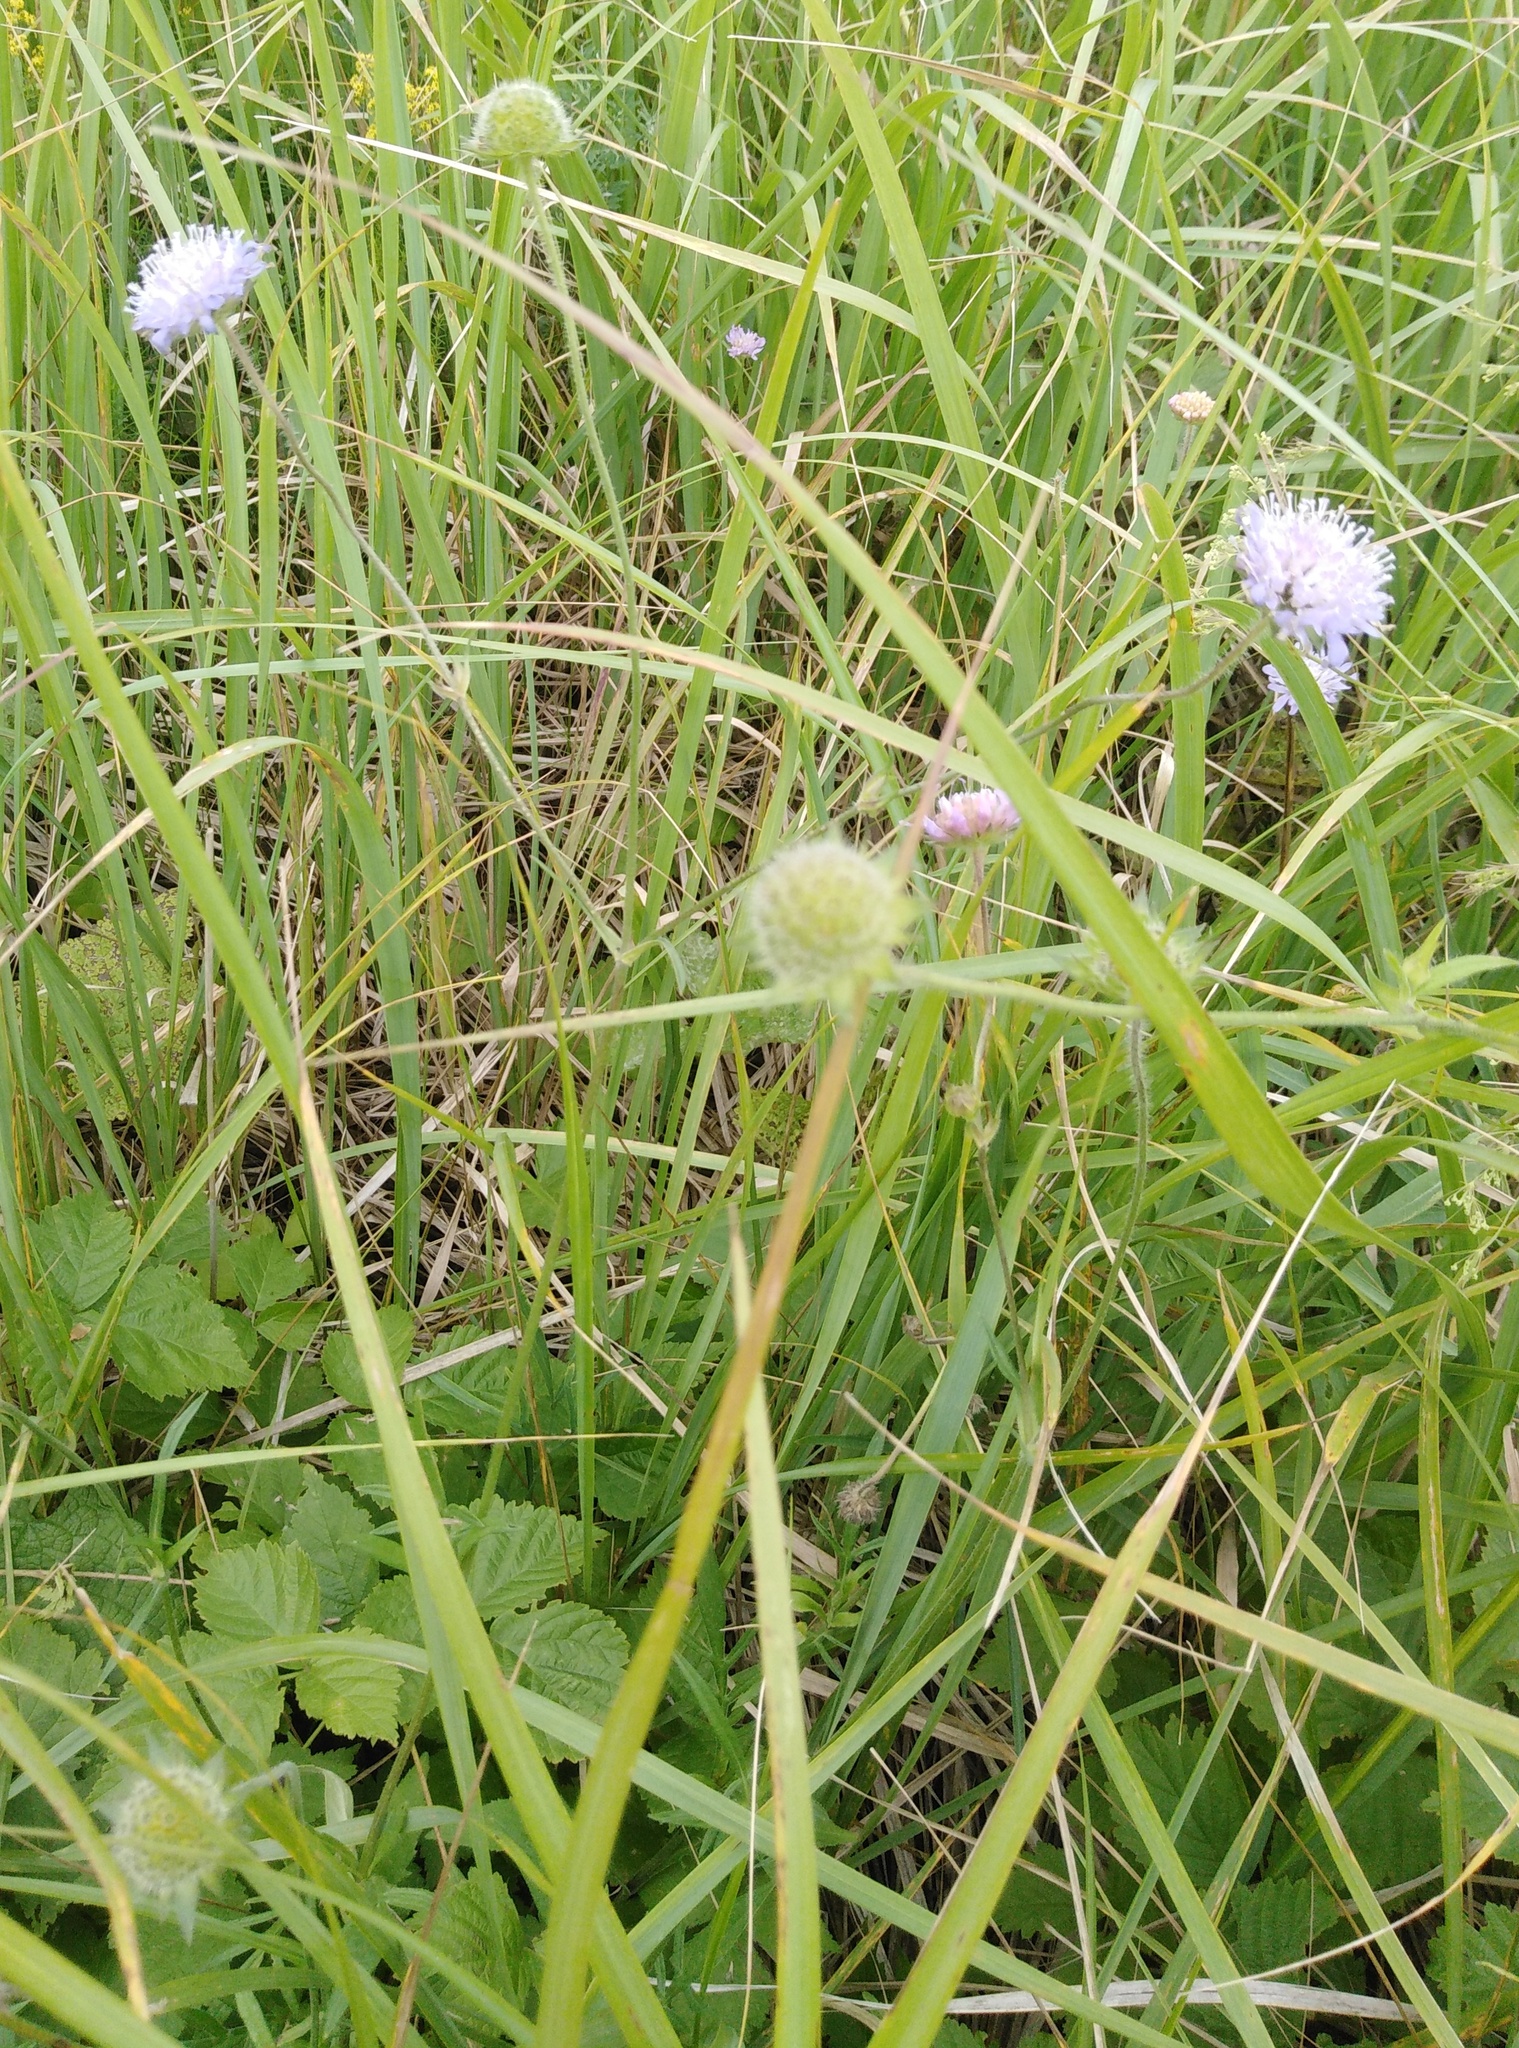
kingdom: Plantae
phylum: Tracheophyta
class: Magnoliopsida
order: Dipsacales
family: Caprifoliaceae
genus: Knautia
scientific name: Knautia arvensis
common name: Field scabiosa
